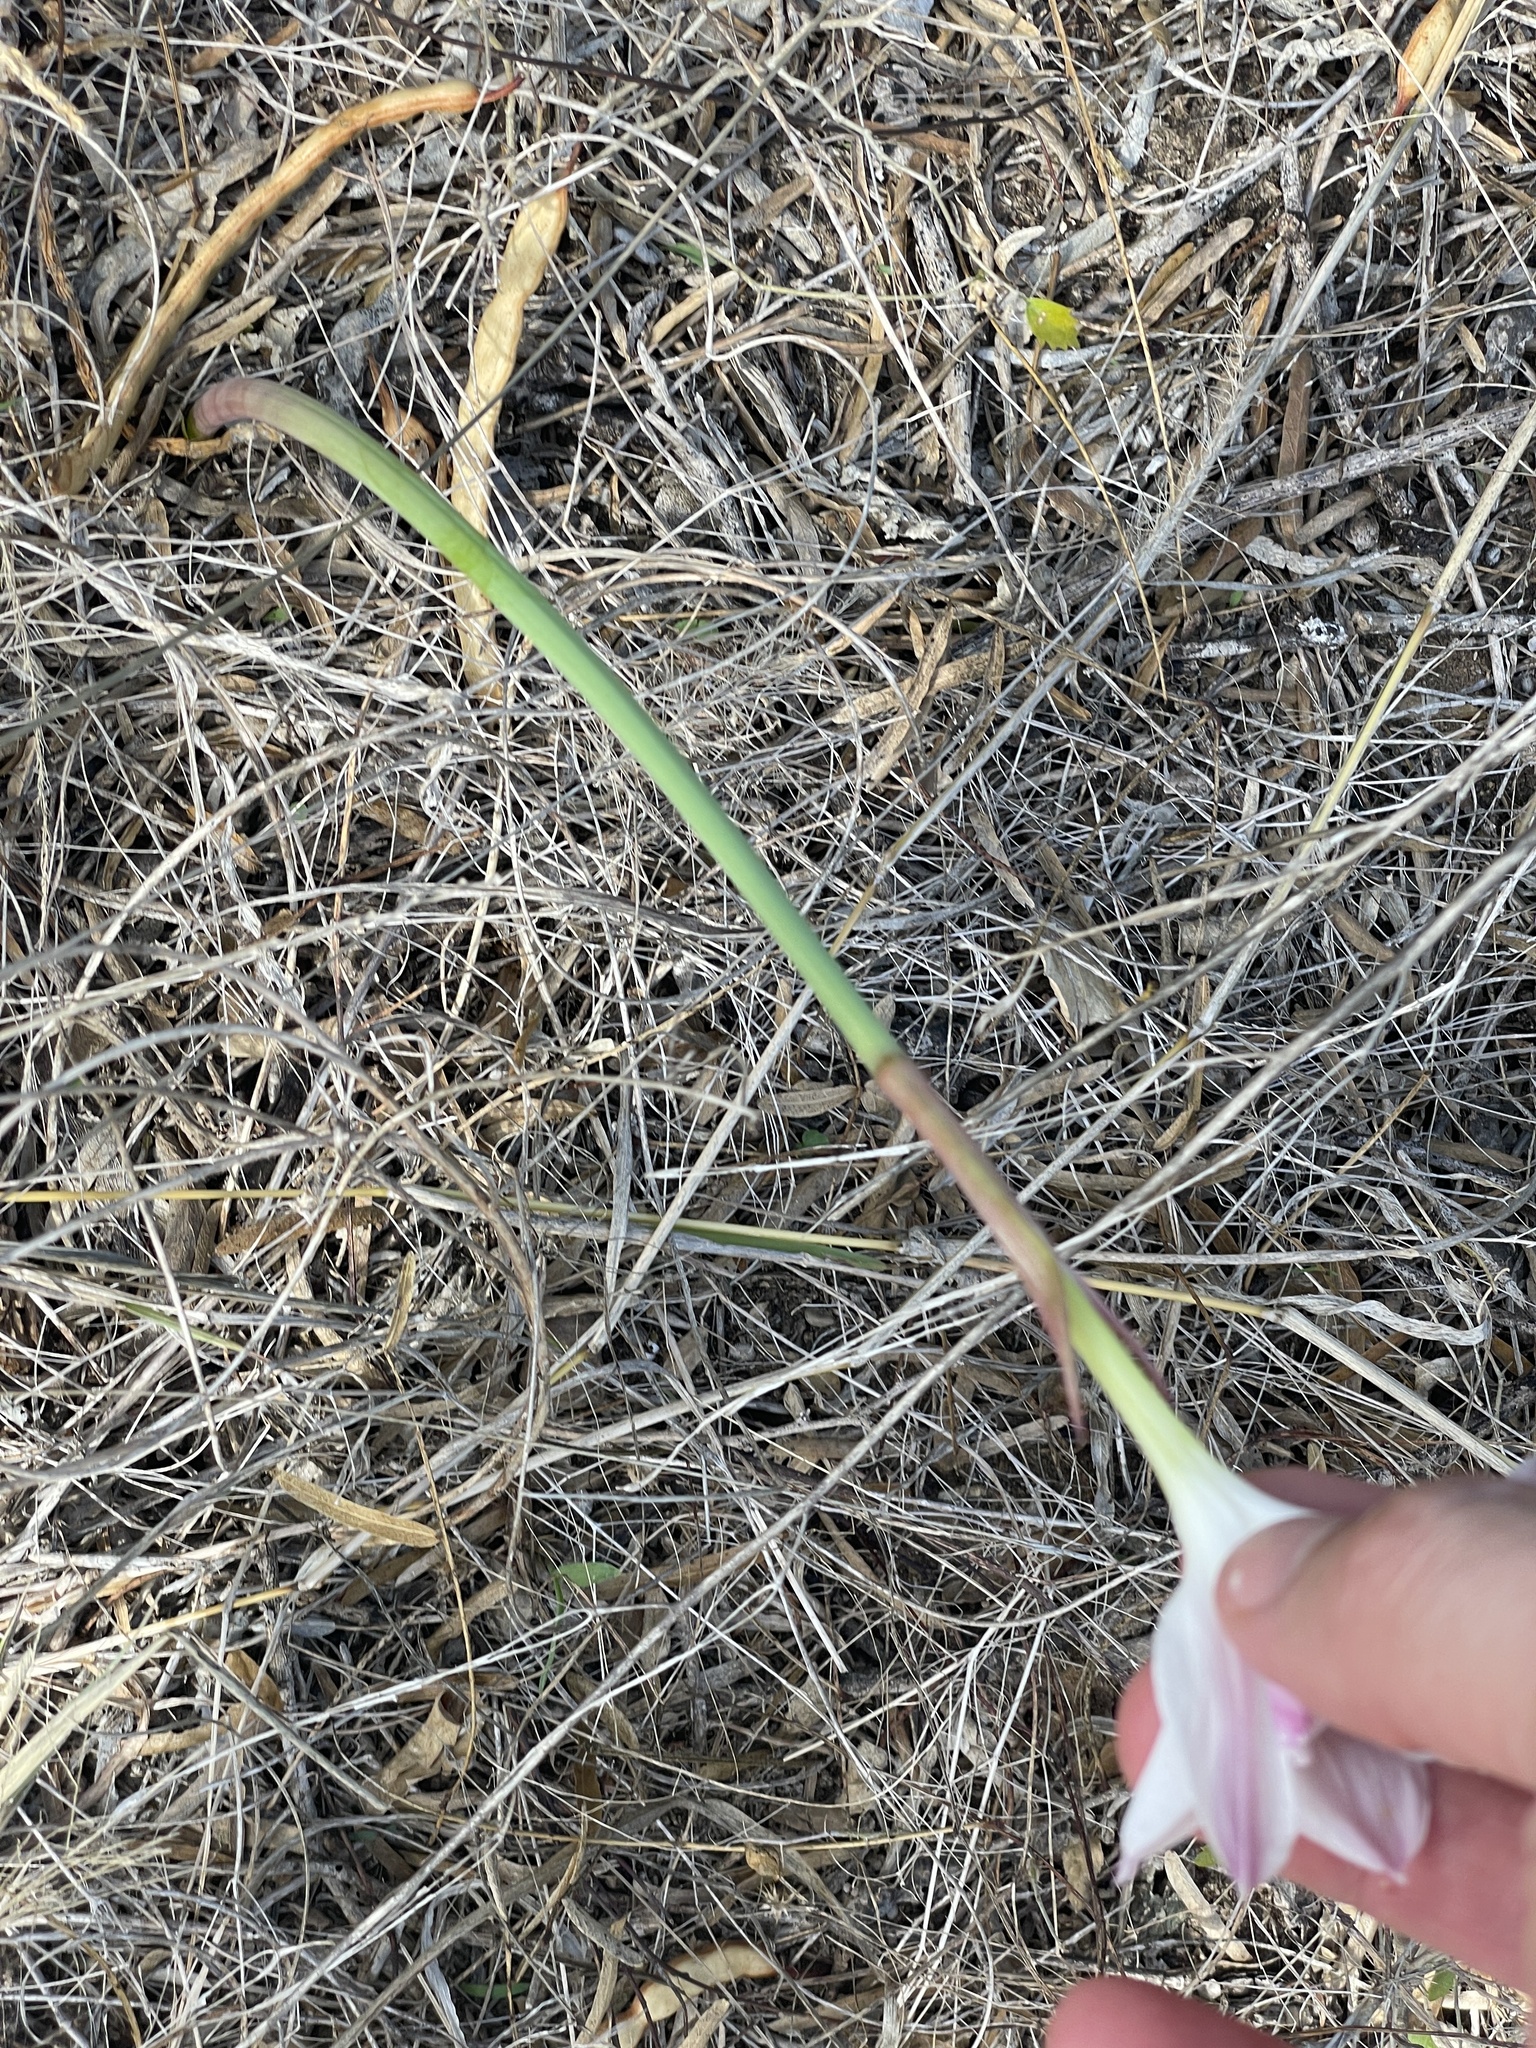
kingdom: Plantae
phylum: Tracheophyta
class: Liliopsida
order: Asparagales
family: Amaryllidaceae
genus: Zephyranthes
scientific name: Zephyranthes drummondii
